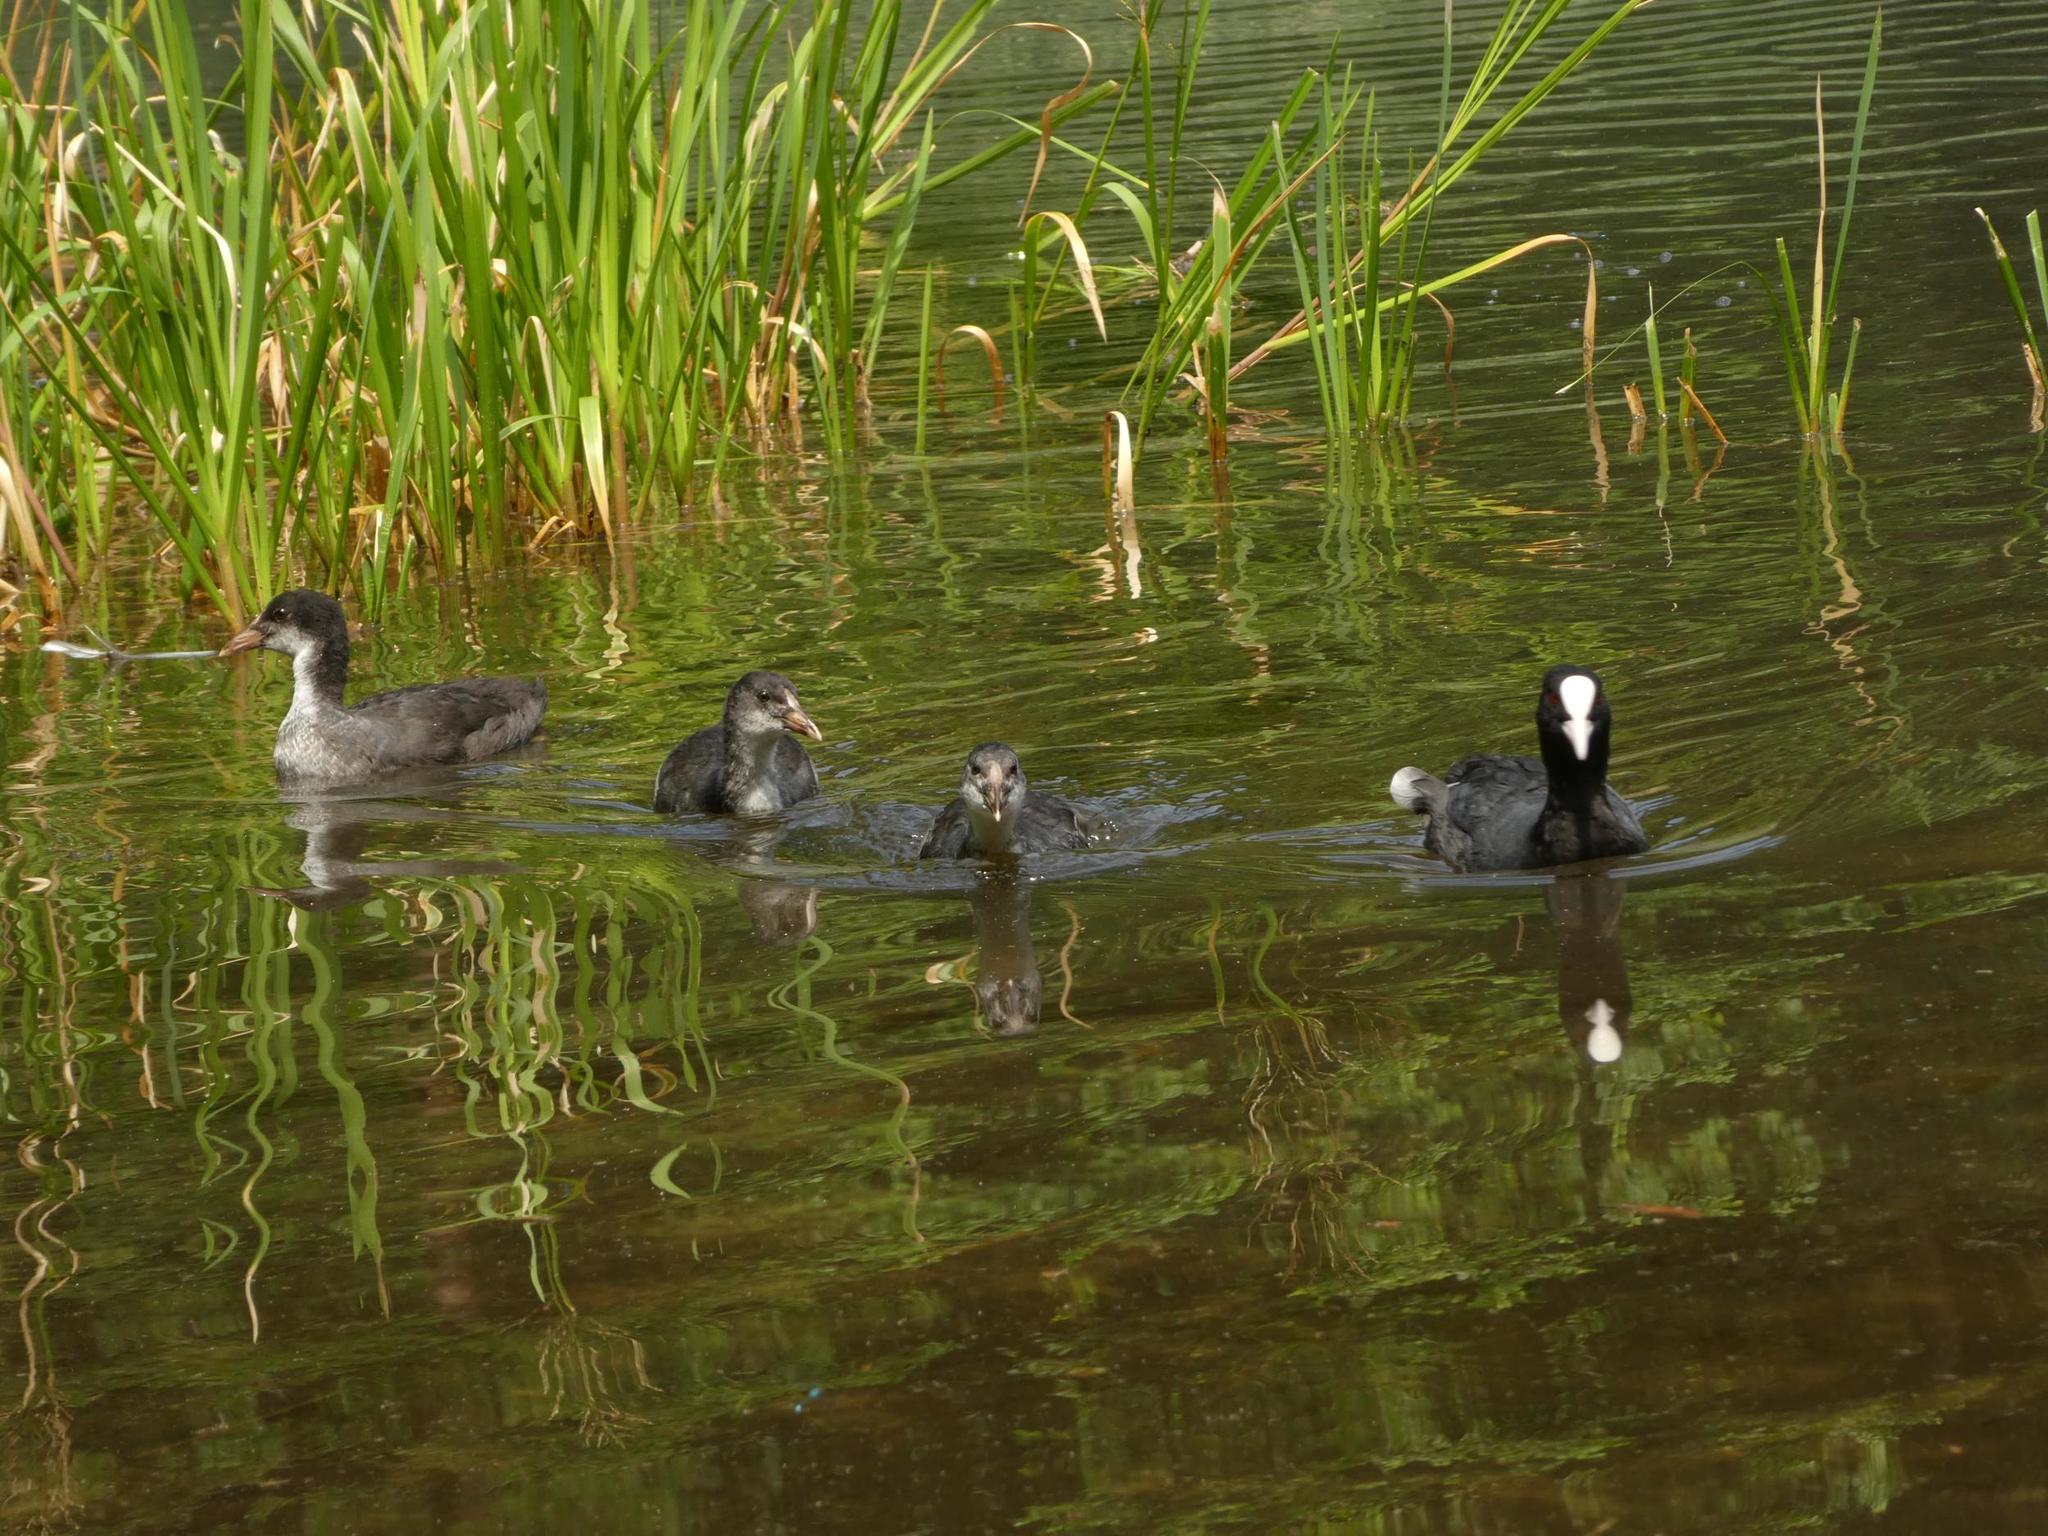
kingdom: Animalia
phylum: Chordata
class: Aves
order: Gruiformes
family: Rallidae
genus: Fulica
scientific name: Fulica atra
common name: Eurasian coot
